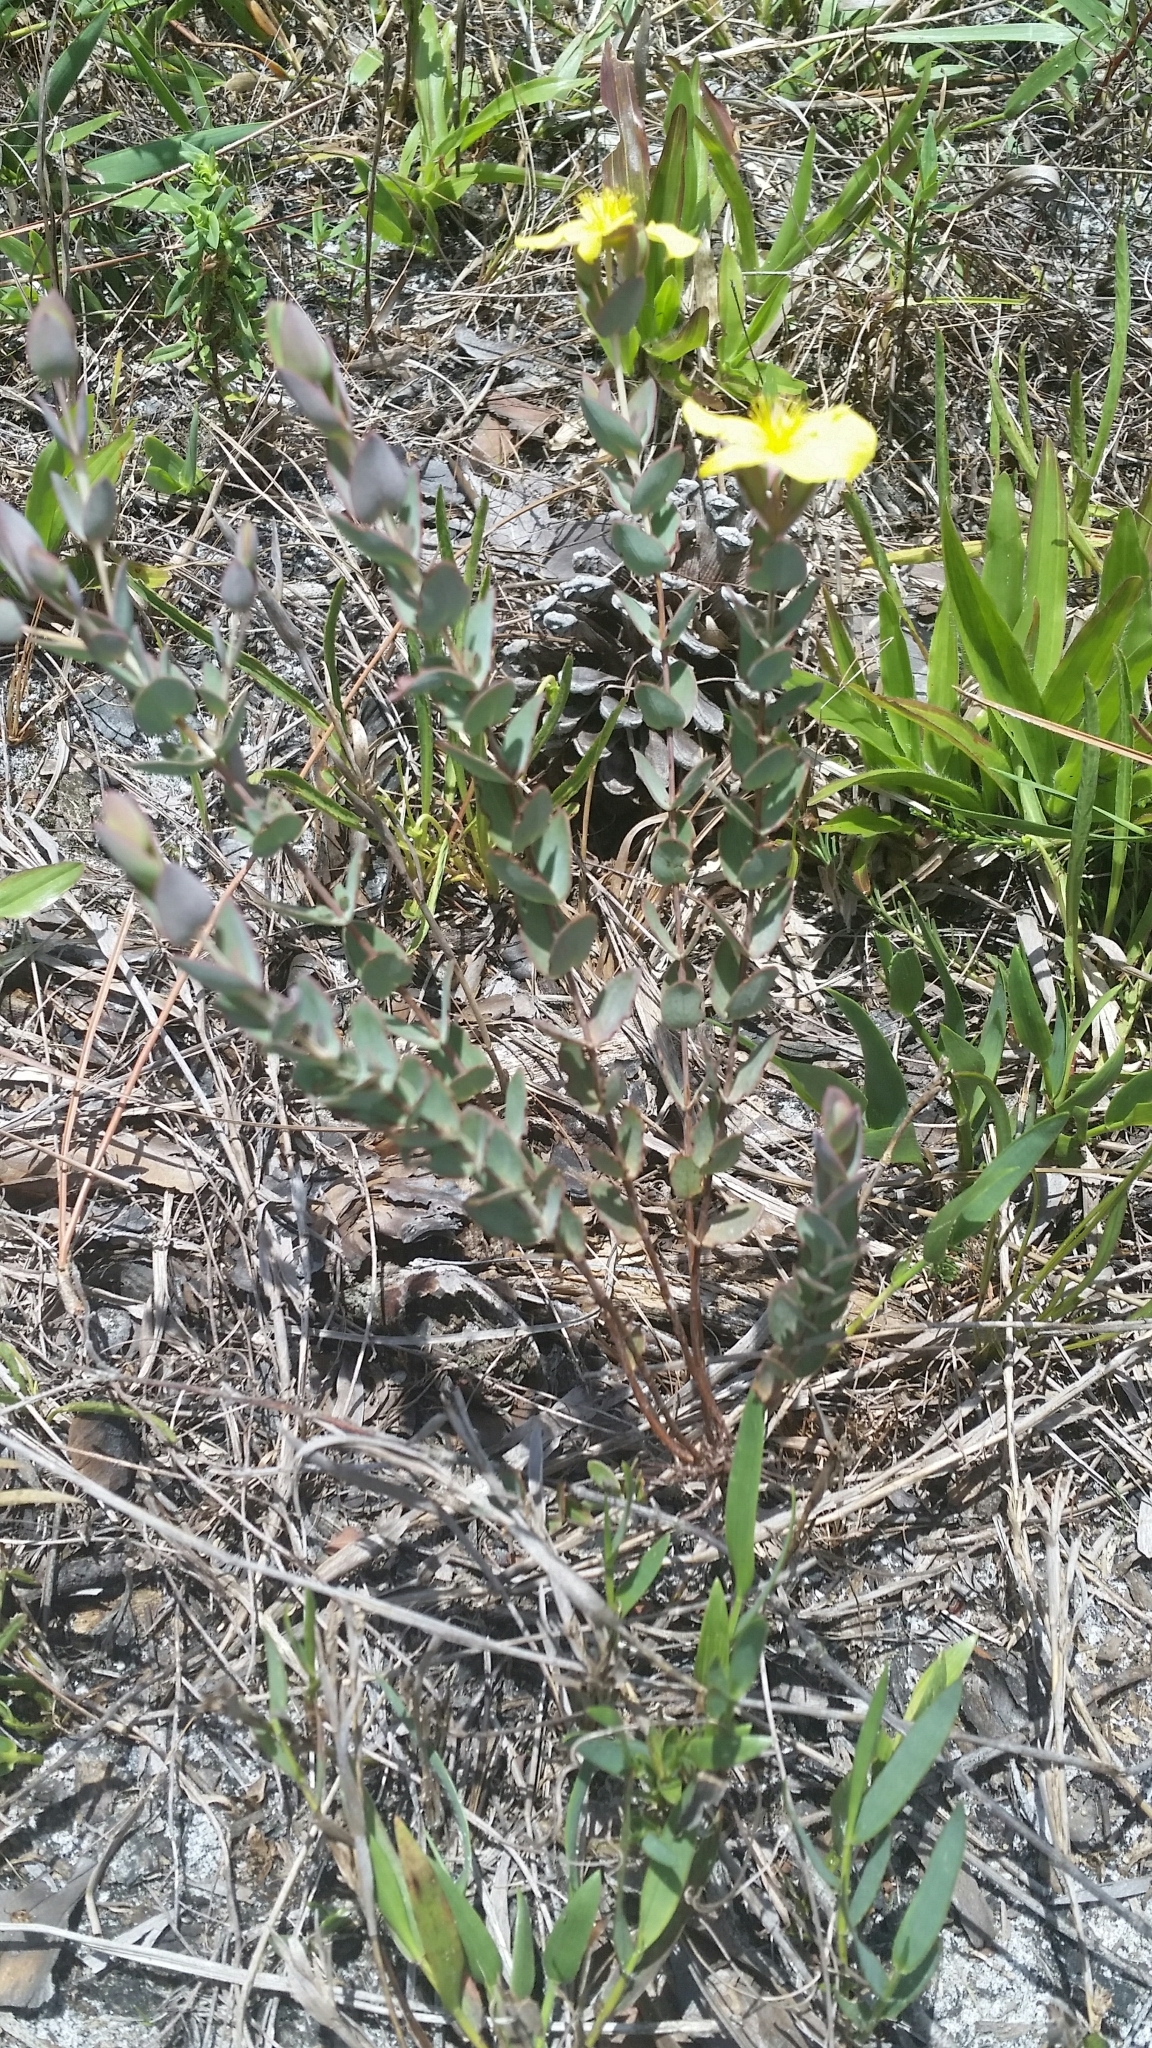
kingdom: Plantae
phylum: Tracheophyta
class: Magnoliopsida
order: Malpighiales
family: Hypericaceae
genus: Hypericum
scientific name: Hypericum tetrapetalum
